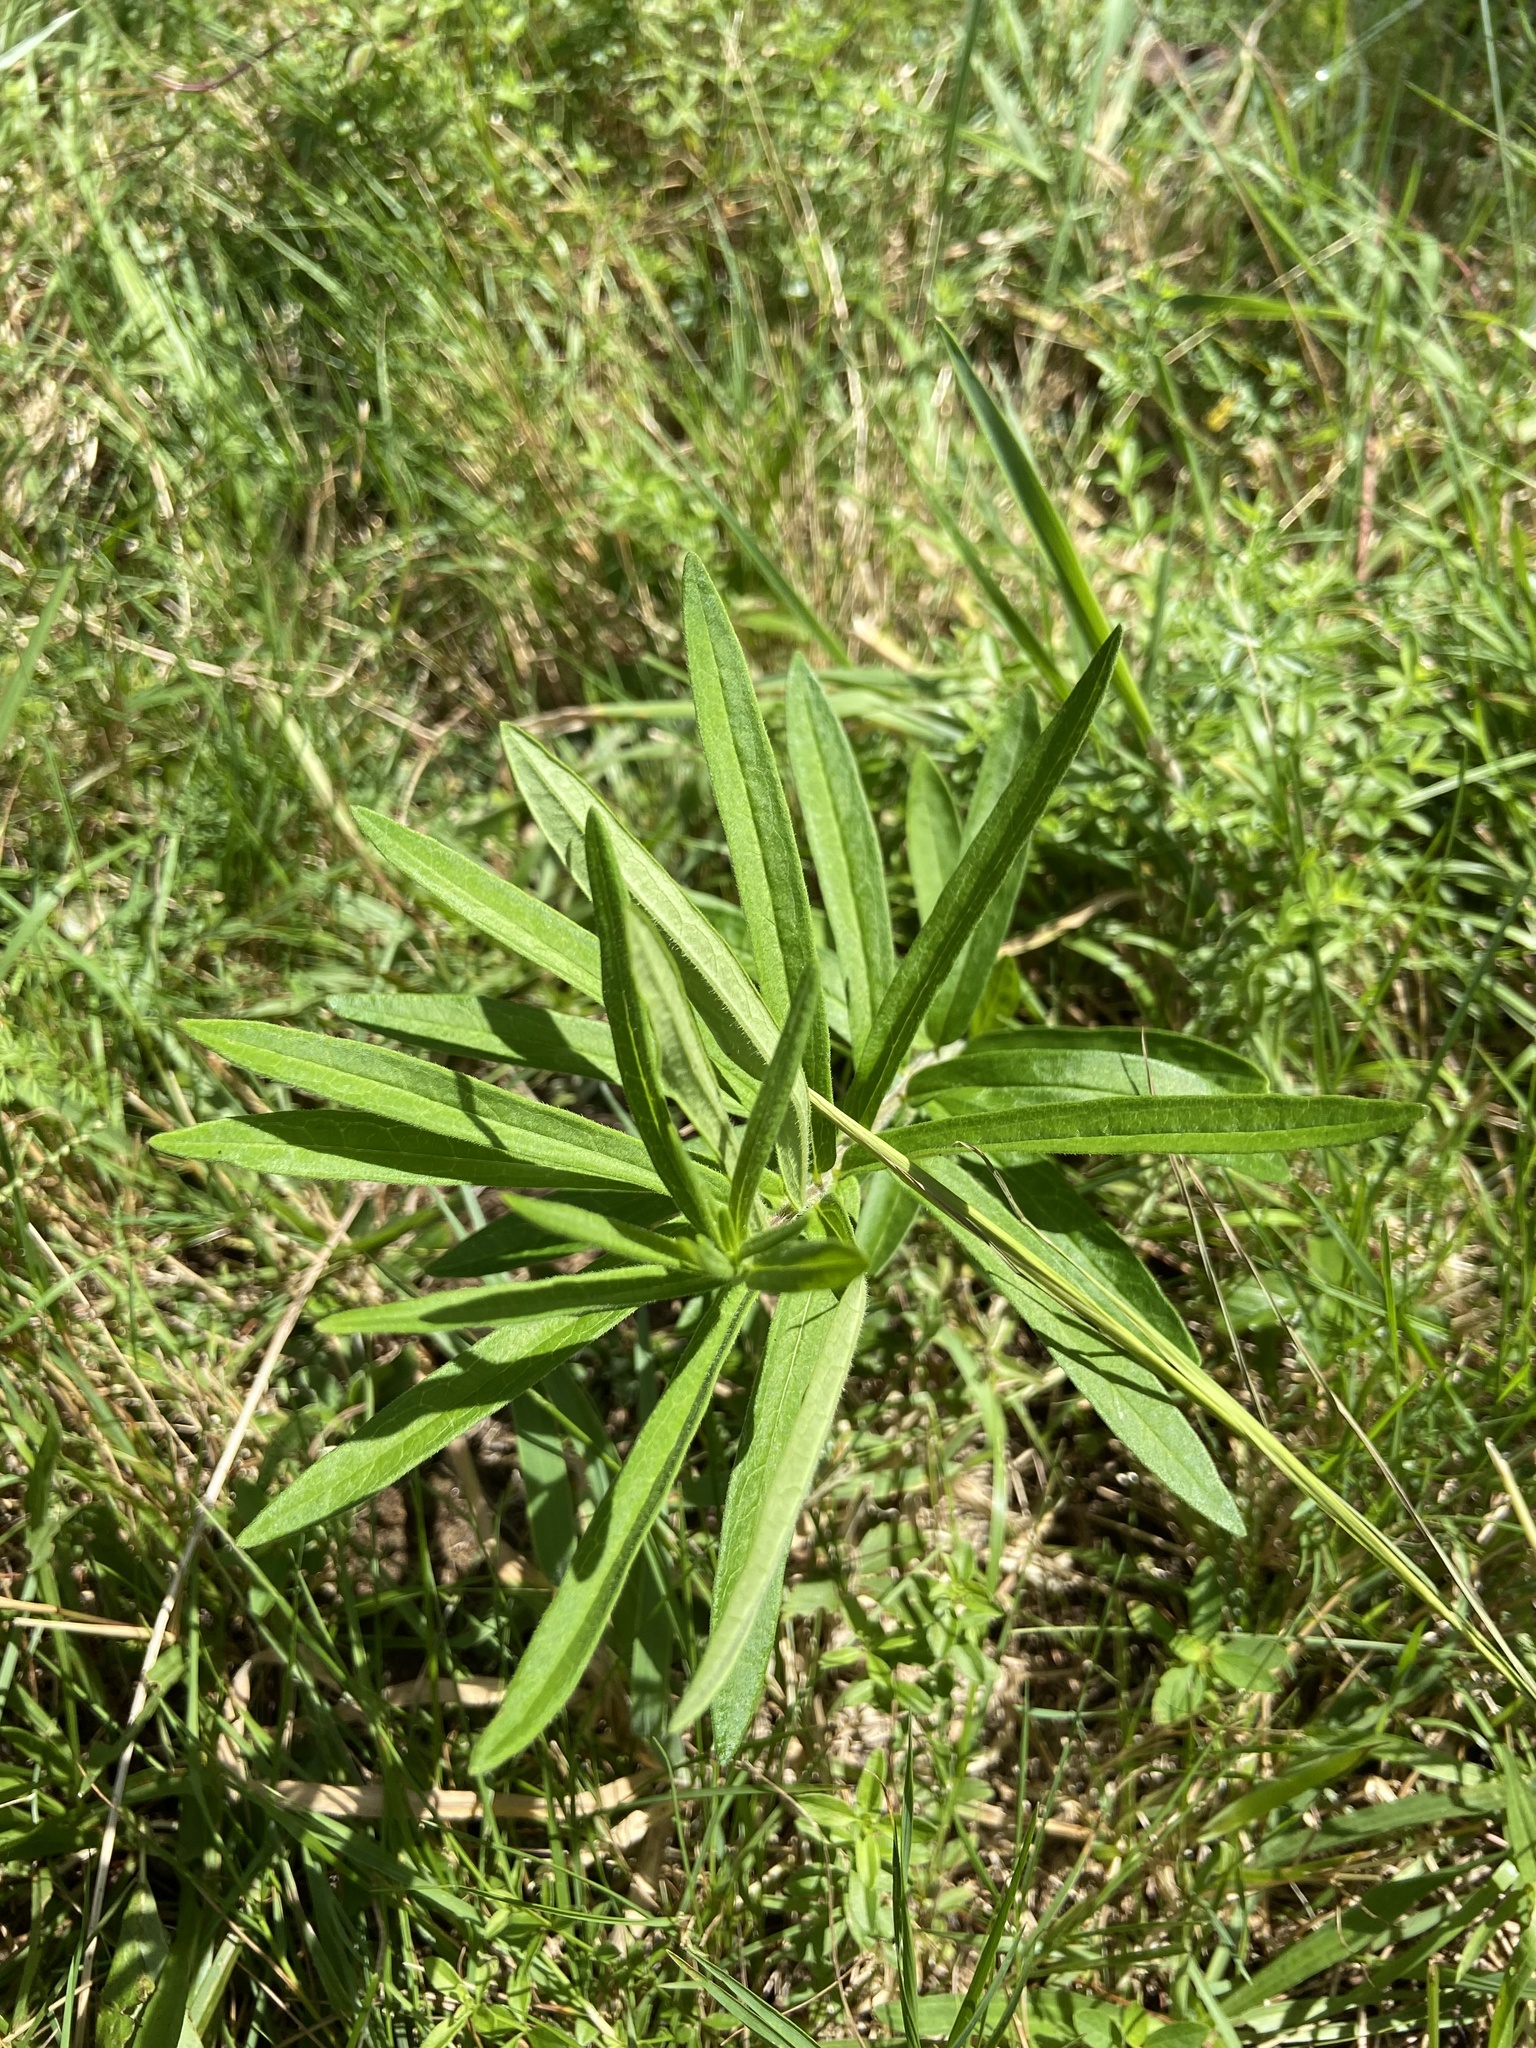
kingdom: Plantae
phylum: Tracheophyta
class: Magnoliopsida
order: Gentianales
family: Apocynaceae
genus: Asclepias
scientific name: Asclepias tuberosa
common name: Butterfly milkweed
